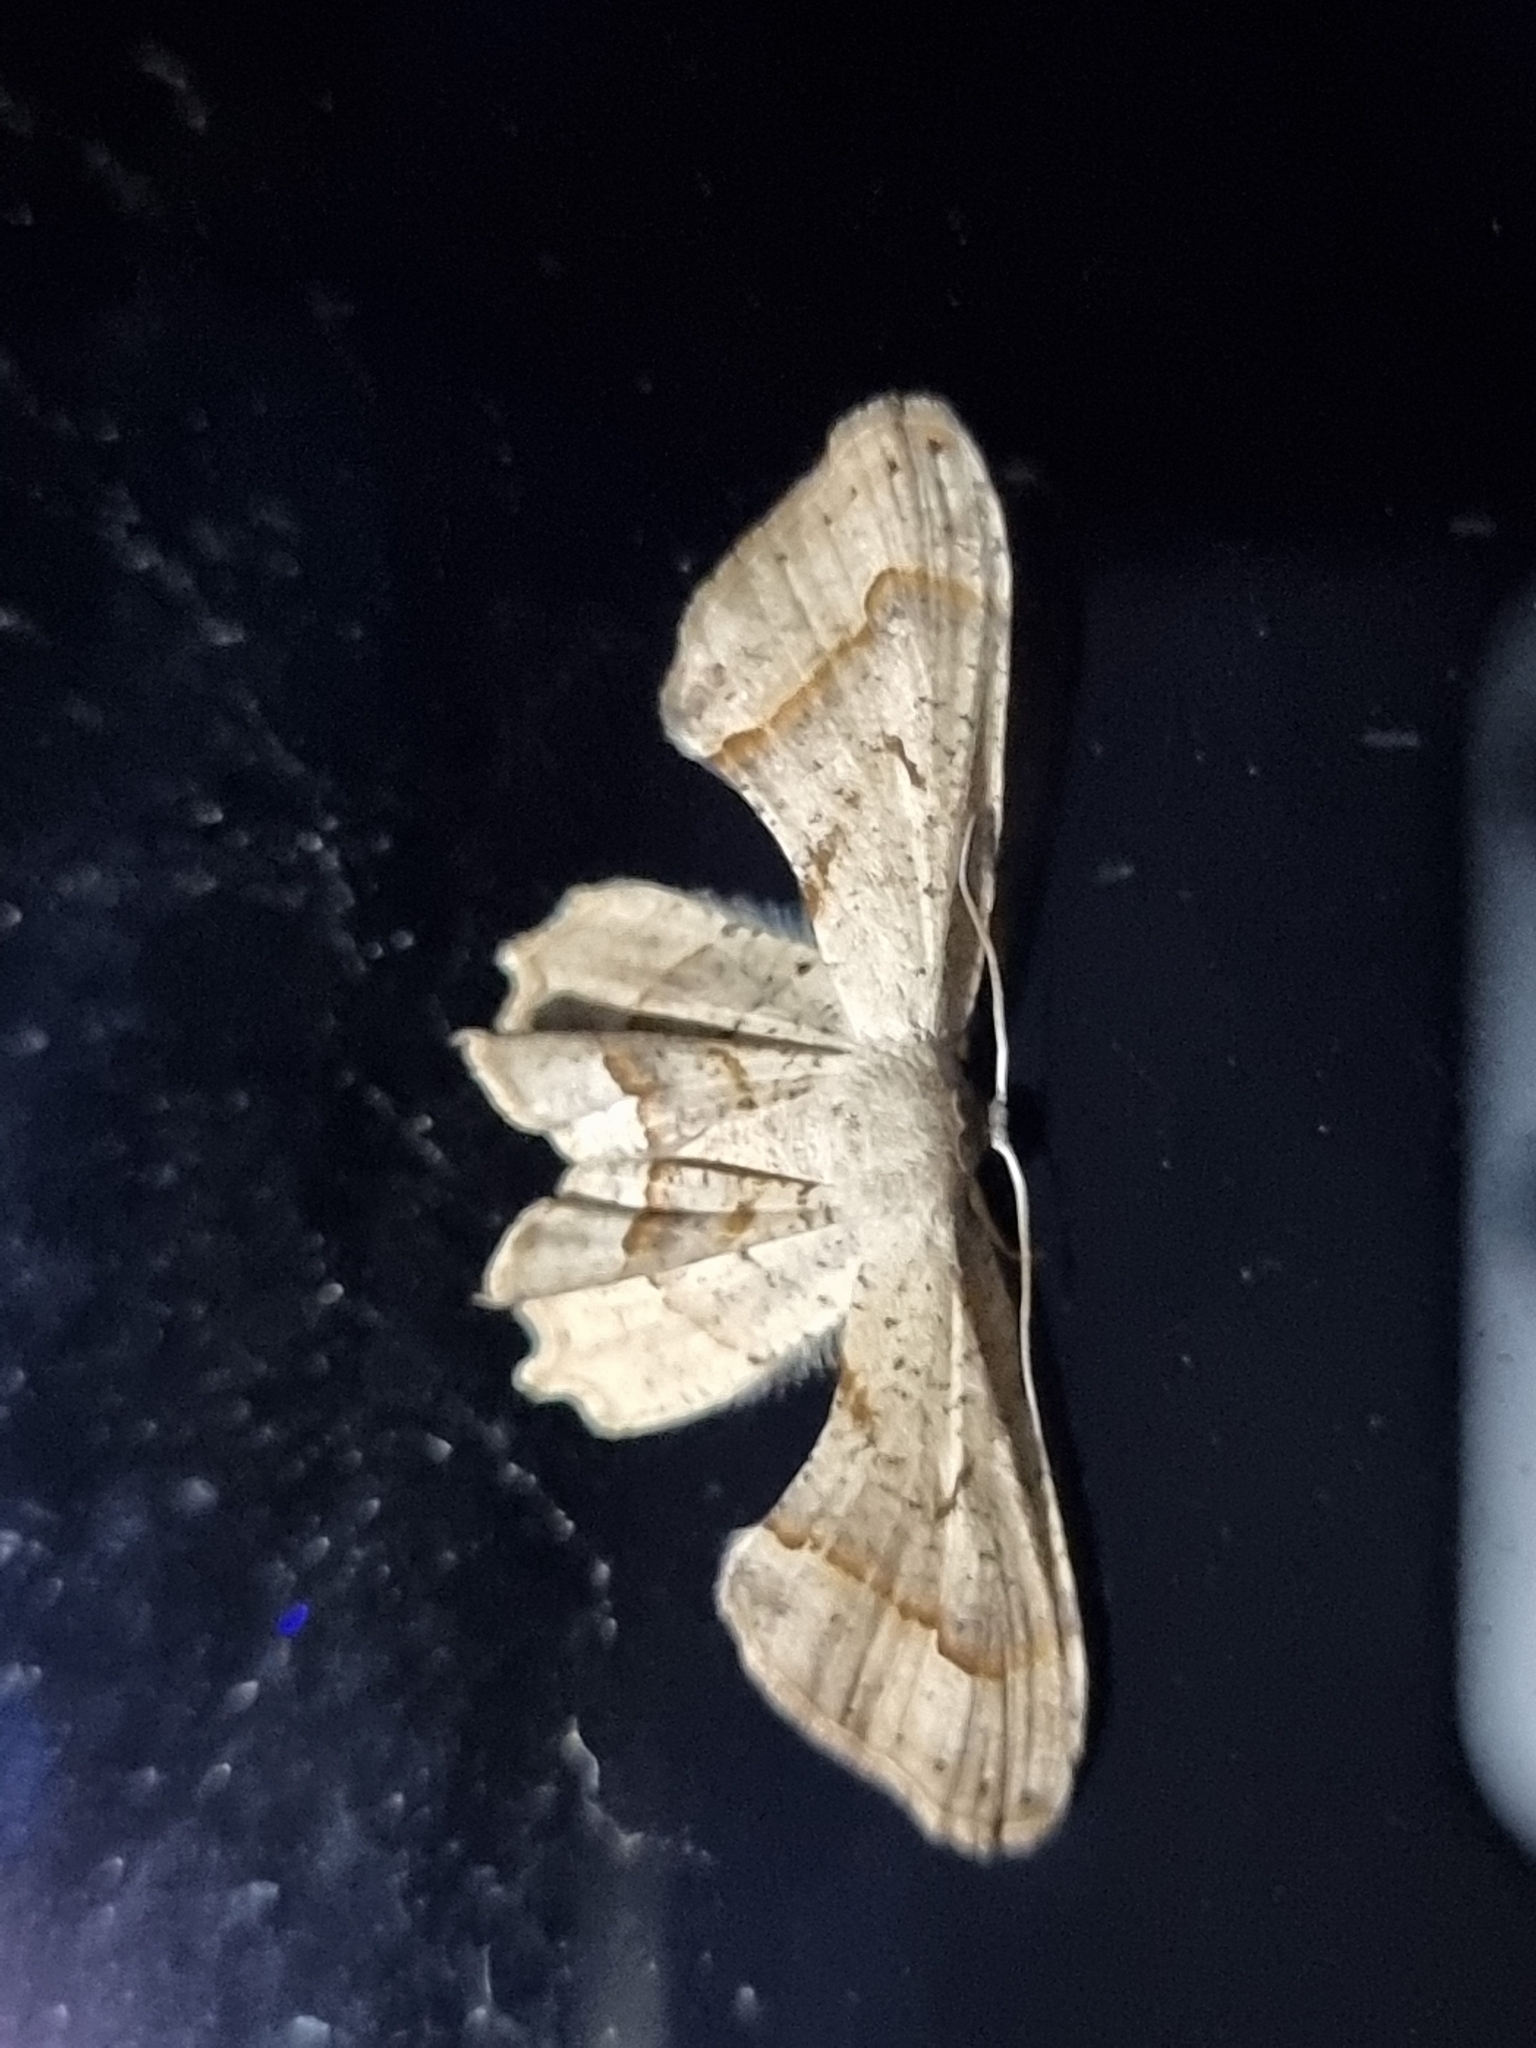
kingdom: Animalia
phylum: Arthropoda
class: Insecta
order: Lepidoptera
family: Uraniidae
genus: Phazaca
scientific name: Phazaca leucocephala
